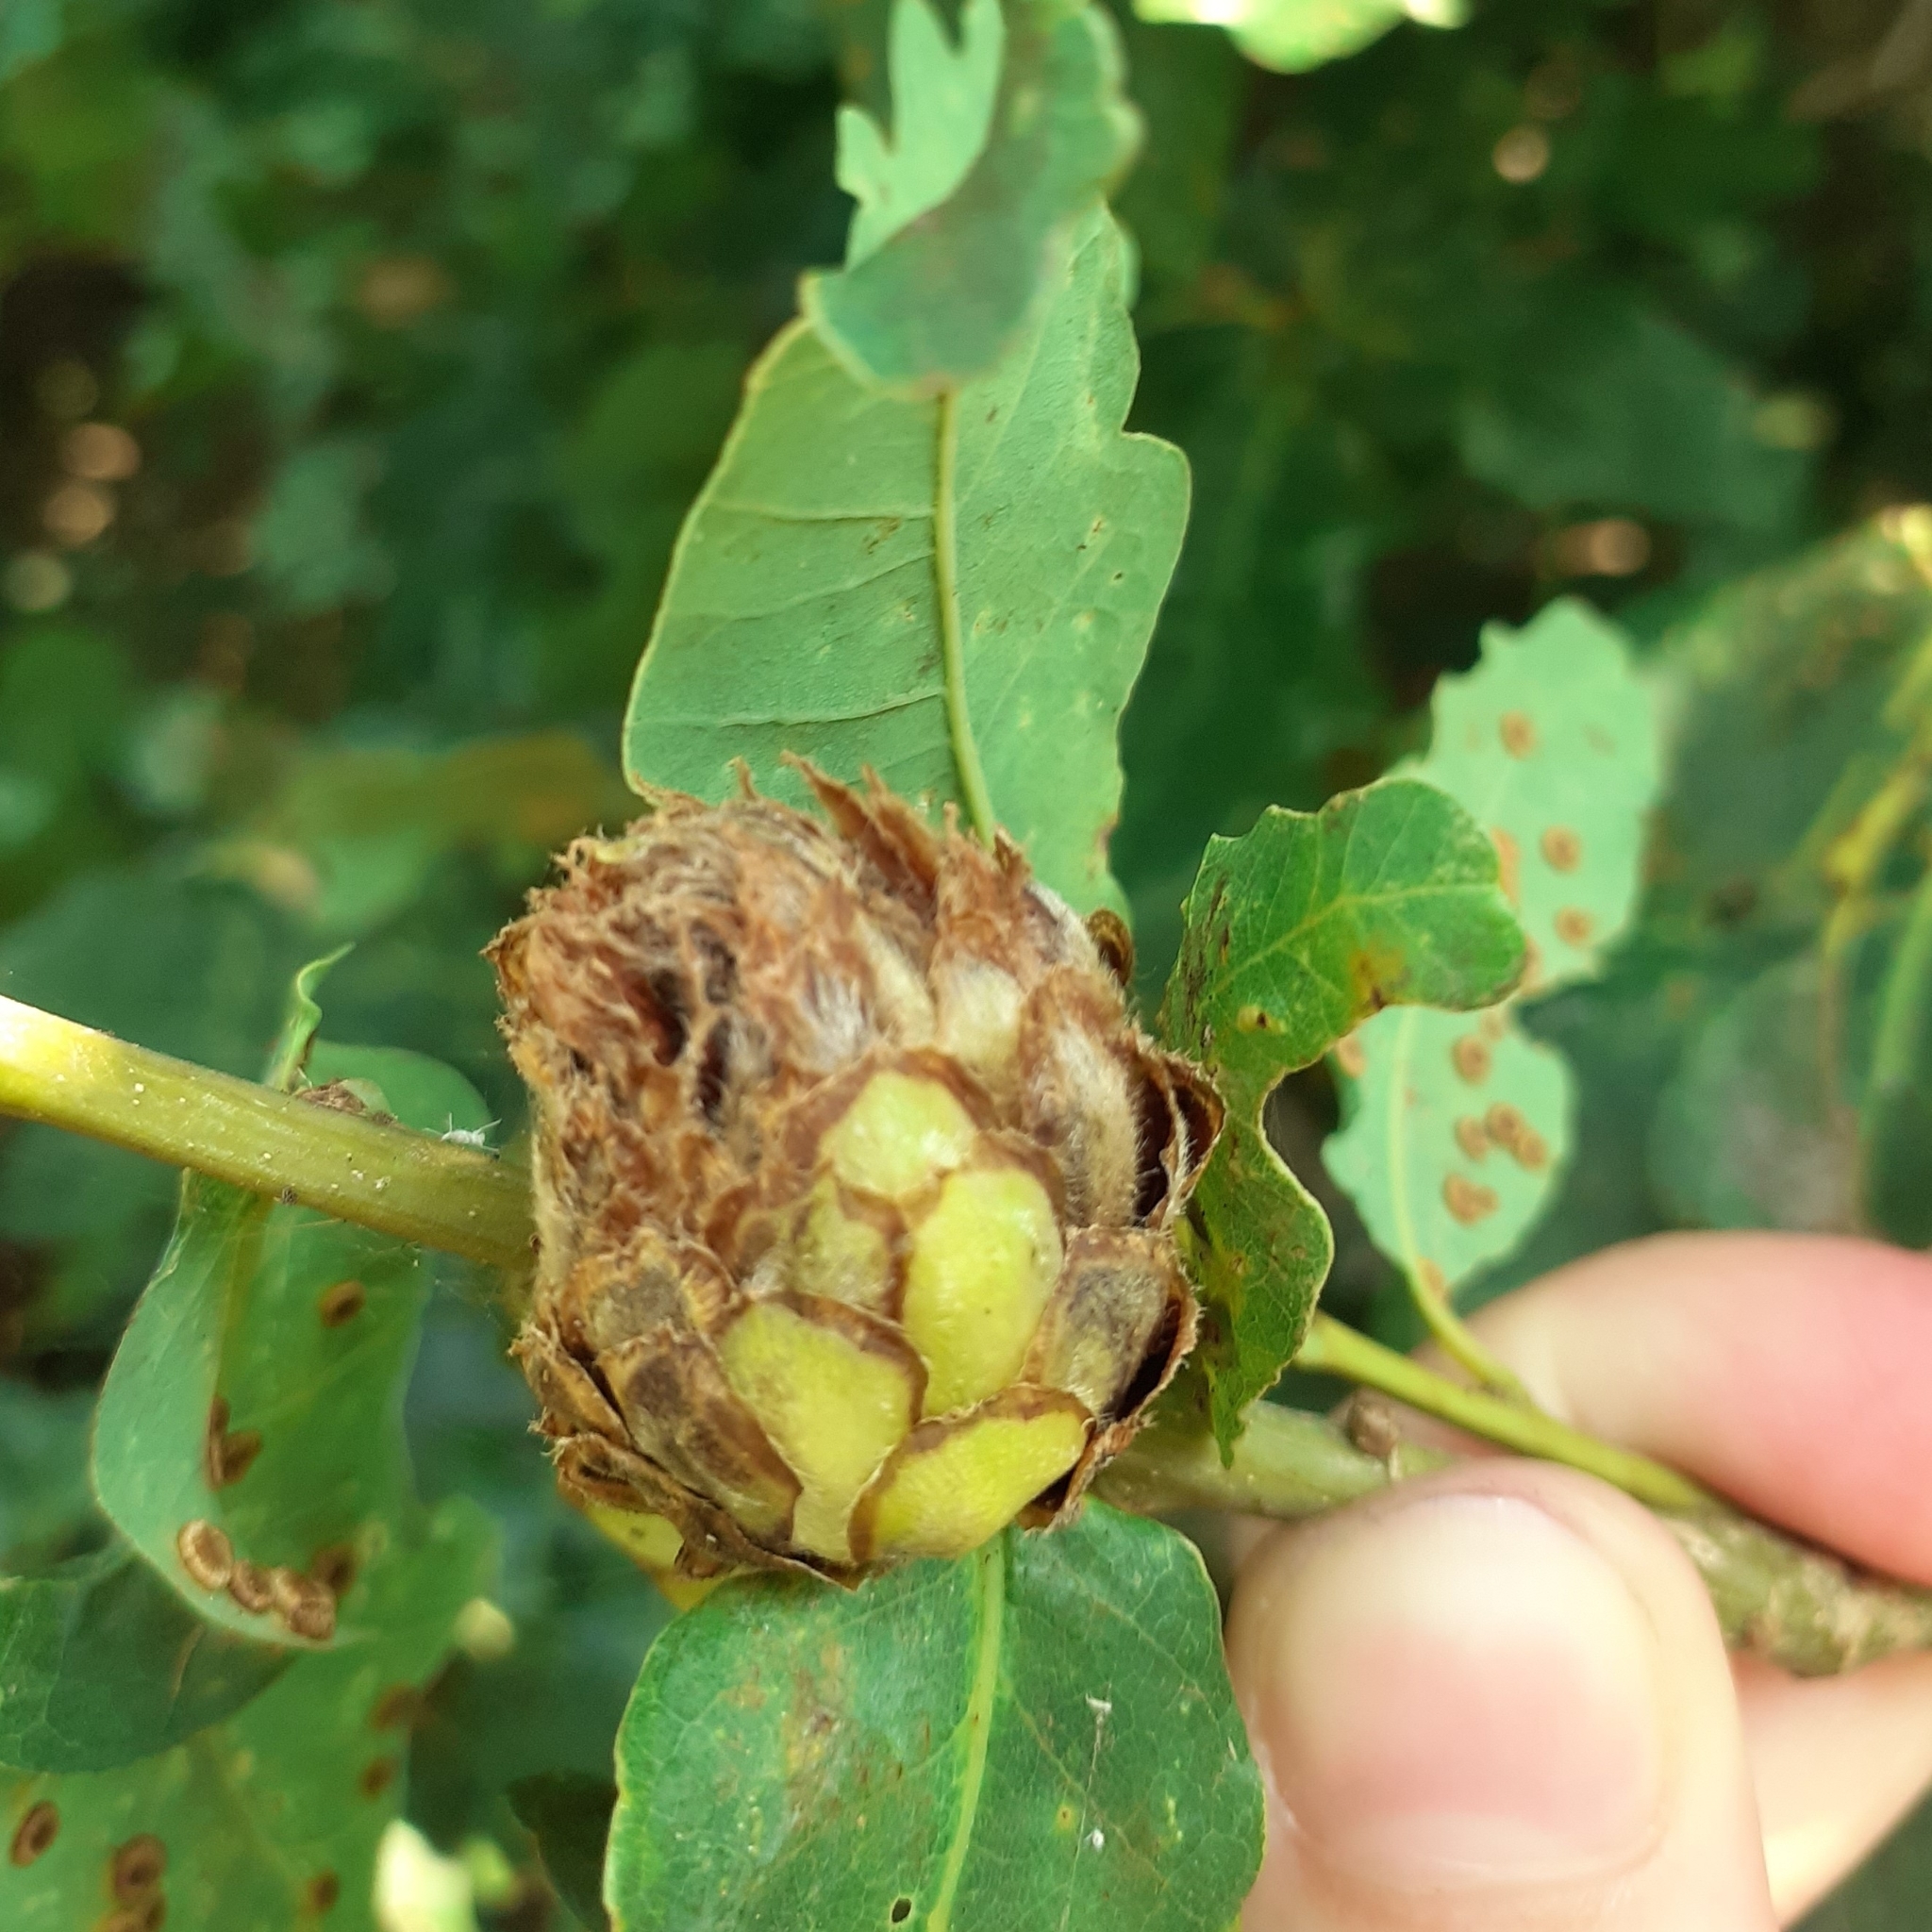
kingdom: Animalia
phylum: Arthropoda
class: Insecta
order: Hymenoptera
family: Cynipidae
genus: Andricus
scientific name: Andricus foecundatrix
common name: Artichoke gall
